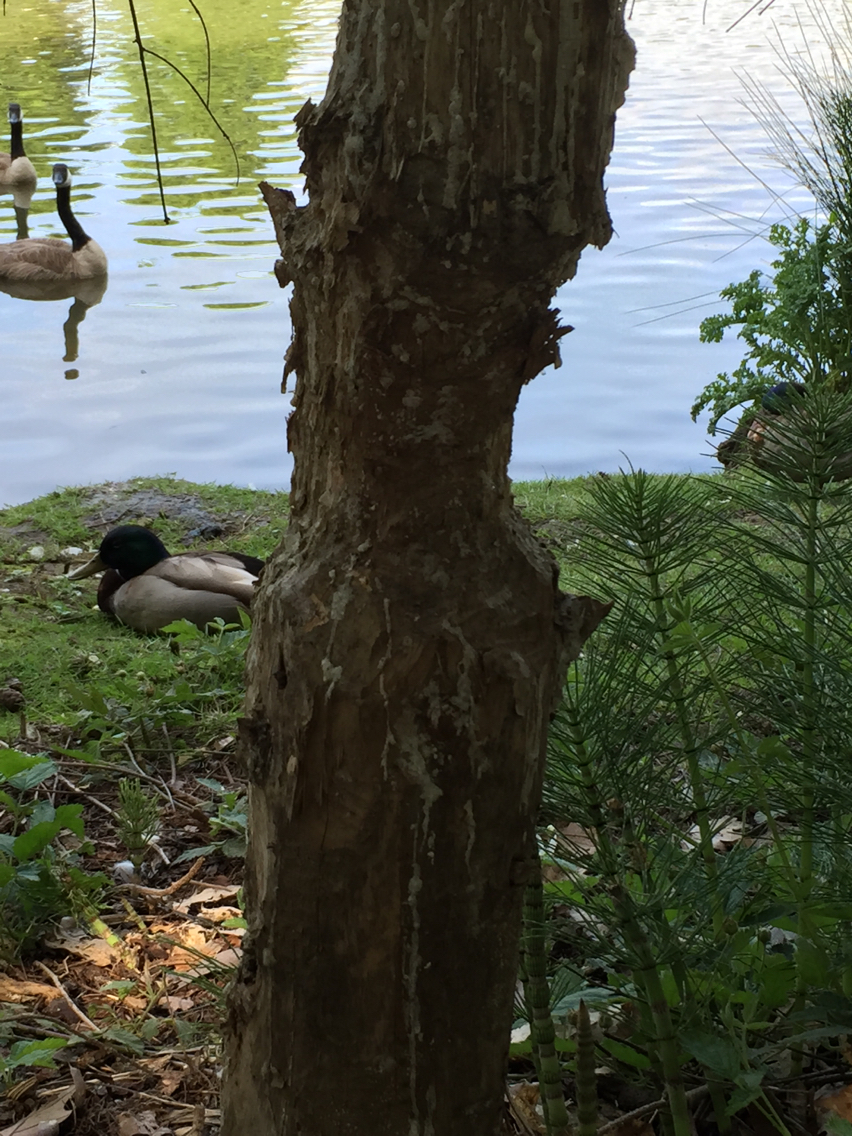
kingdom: Animalia
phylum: Chordata
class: Mammalia
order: Rodentia
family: Castoridae
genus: Castor
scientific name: Castor canadensis
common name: American beaver
